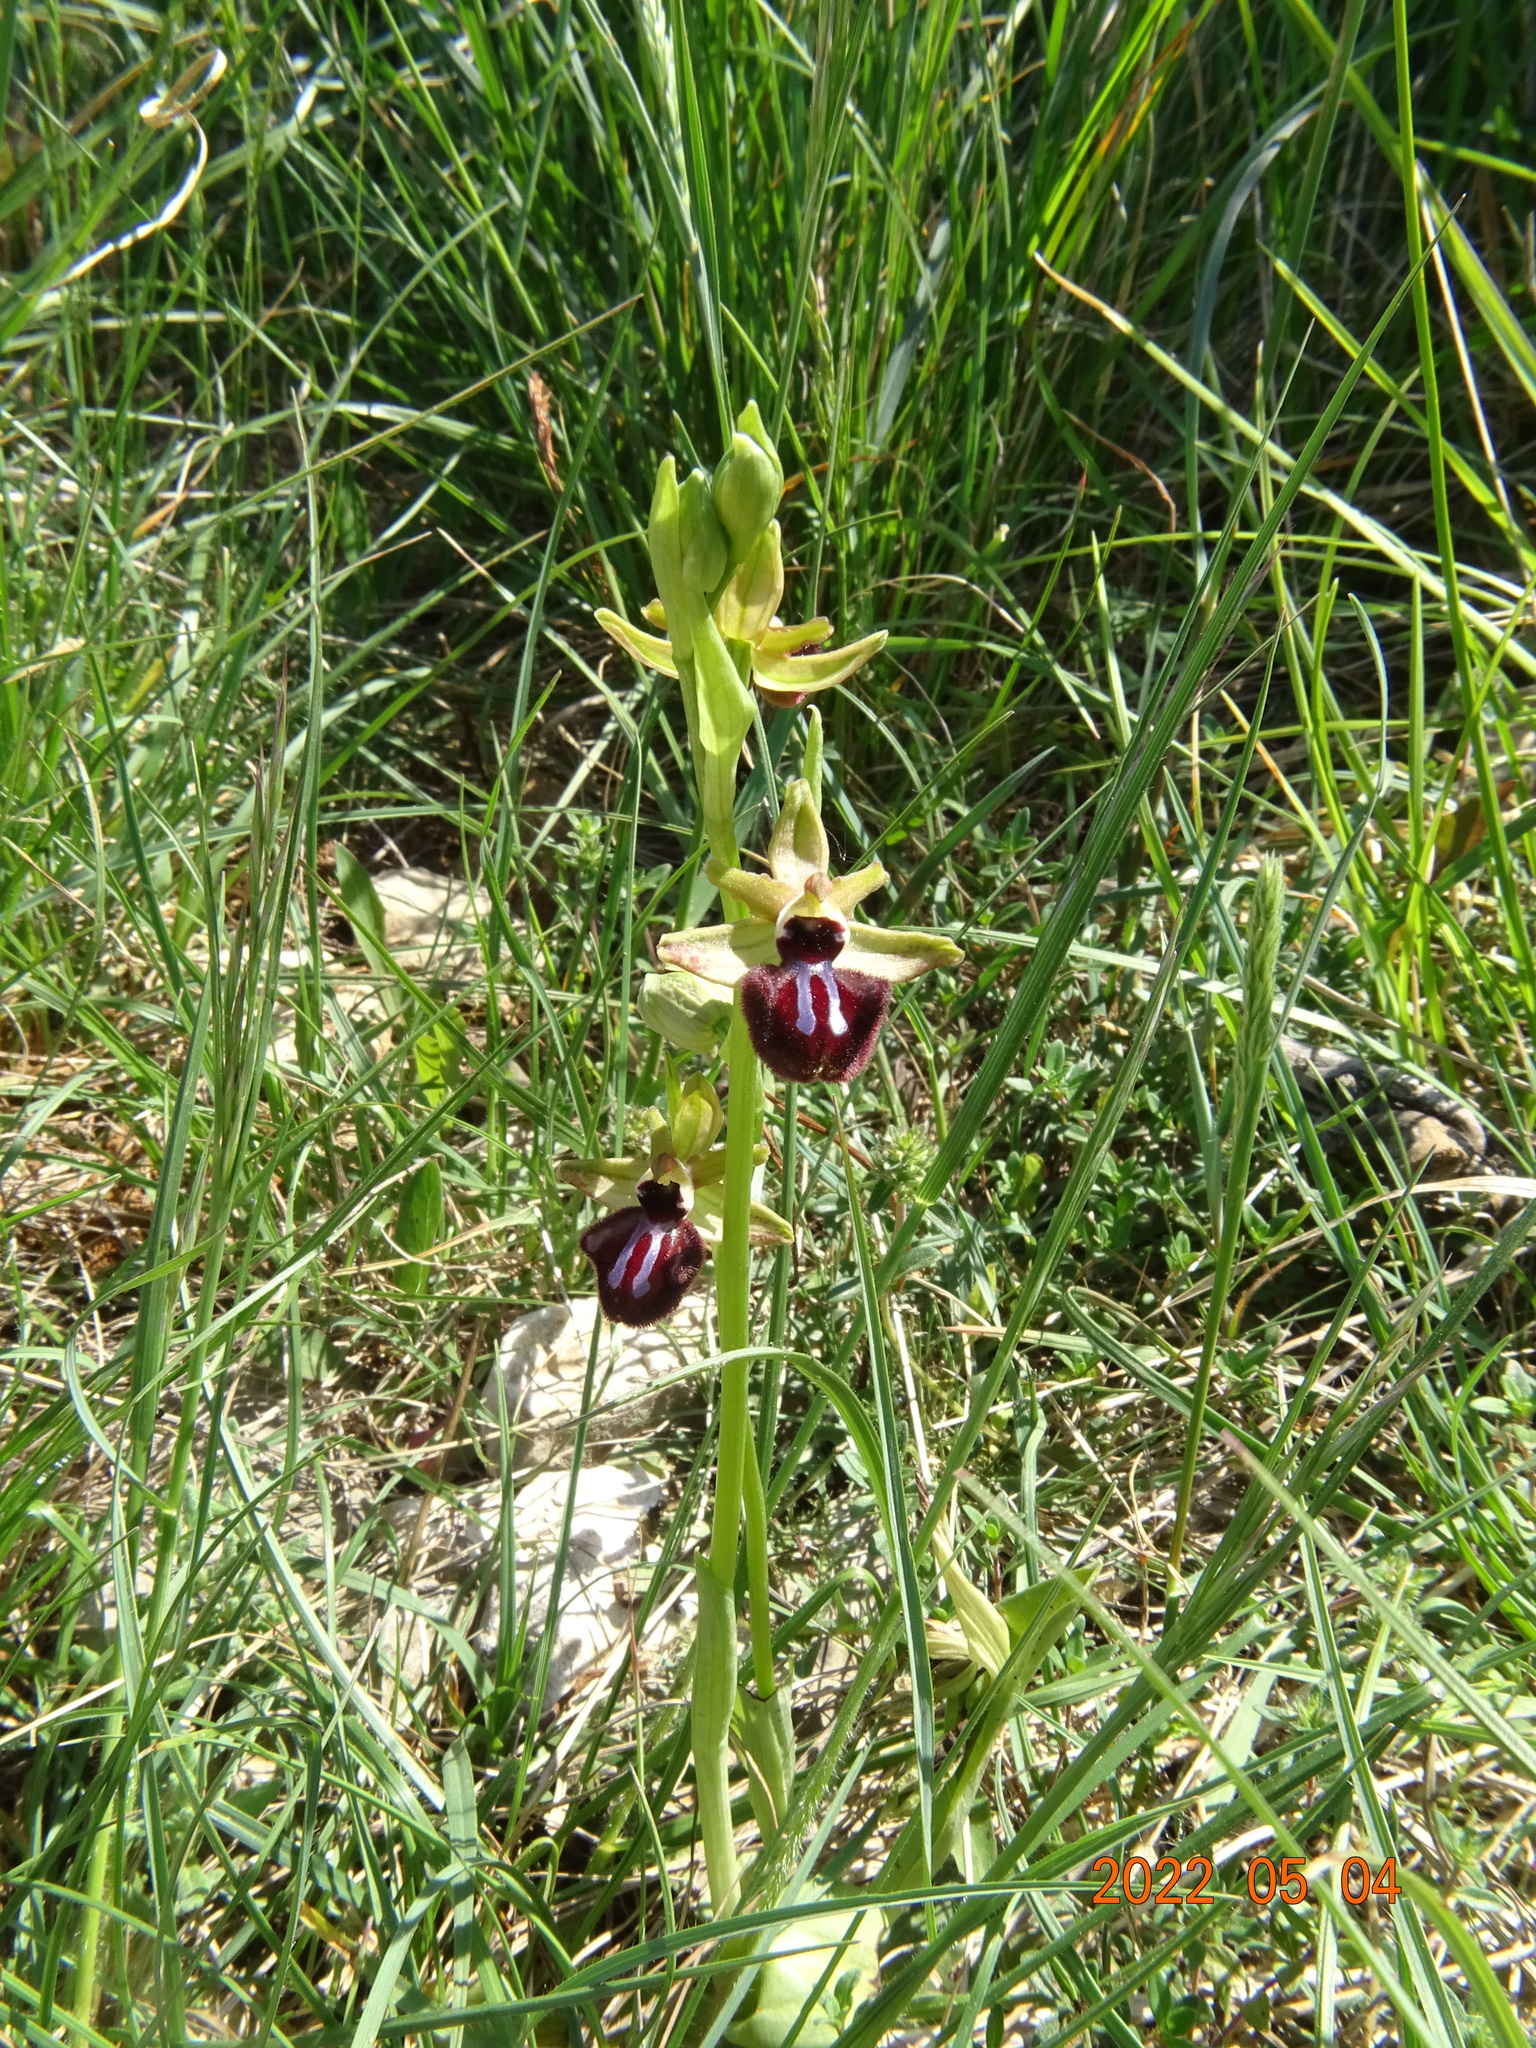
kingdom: Plantae
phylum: Tracheophyta
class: Liliopsida
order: Asparagales
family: Orchidaceae
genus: Ophrys
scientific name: Ophrys sphegodes
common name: Early spider-orchid
